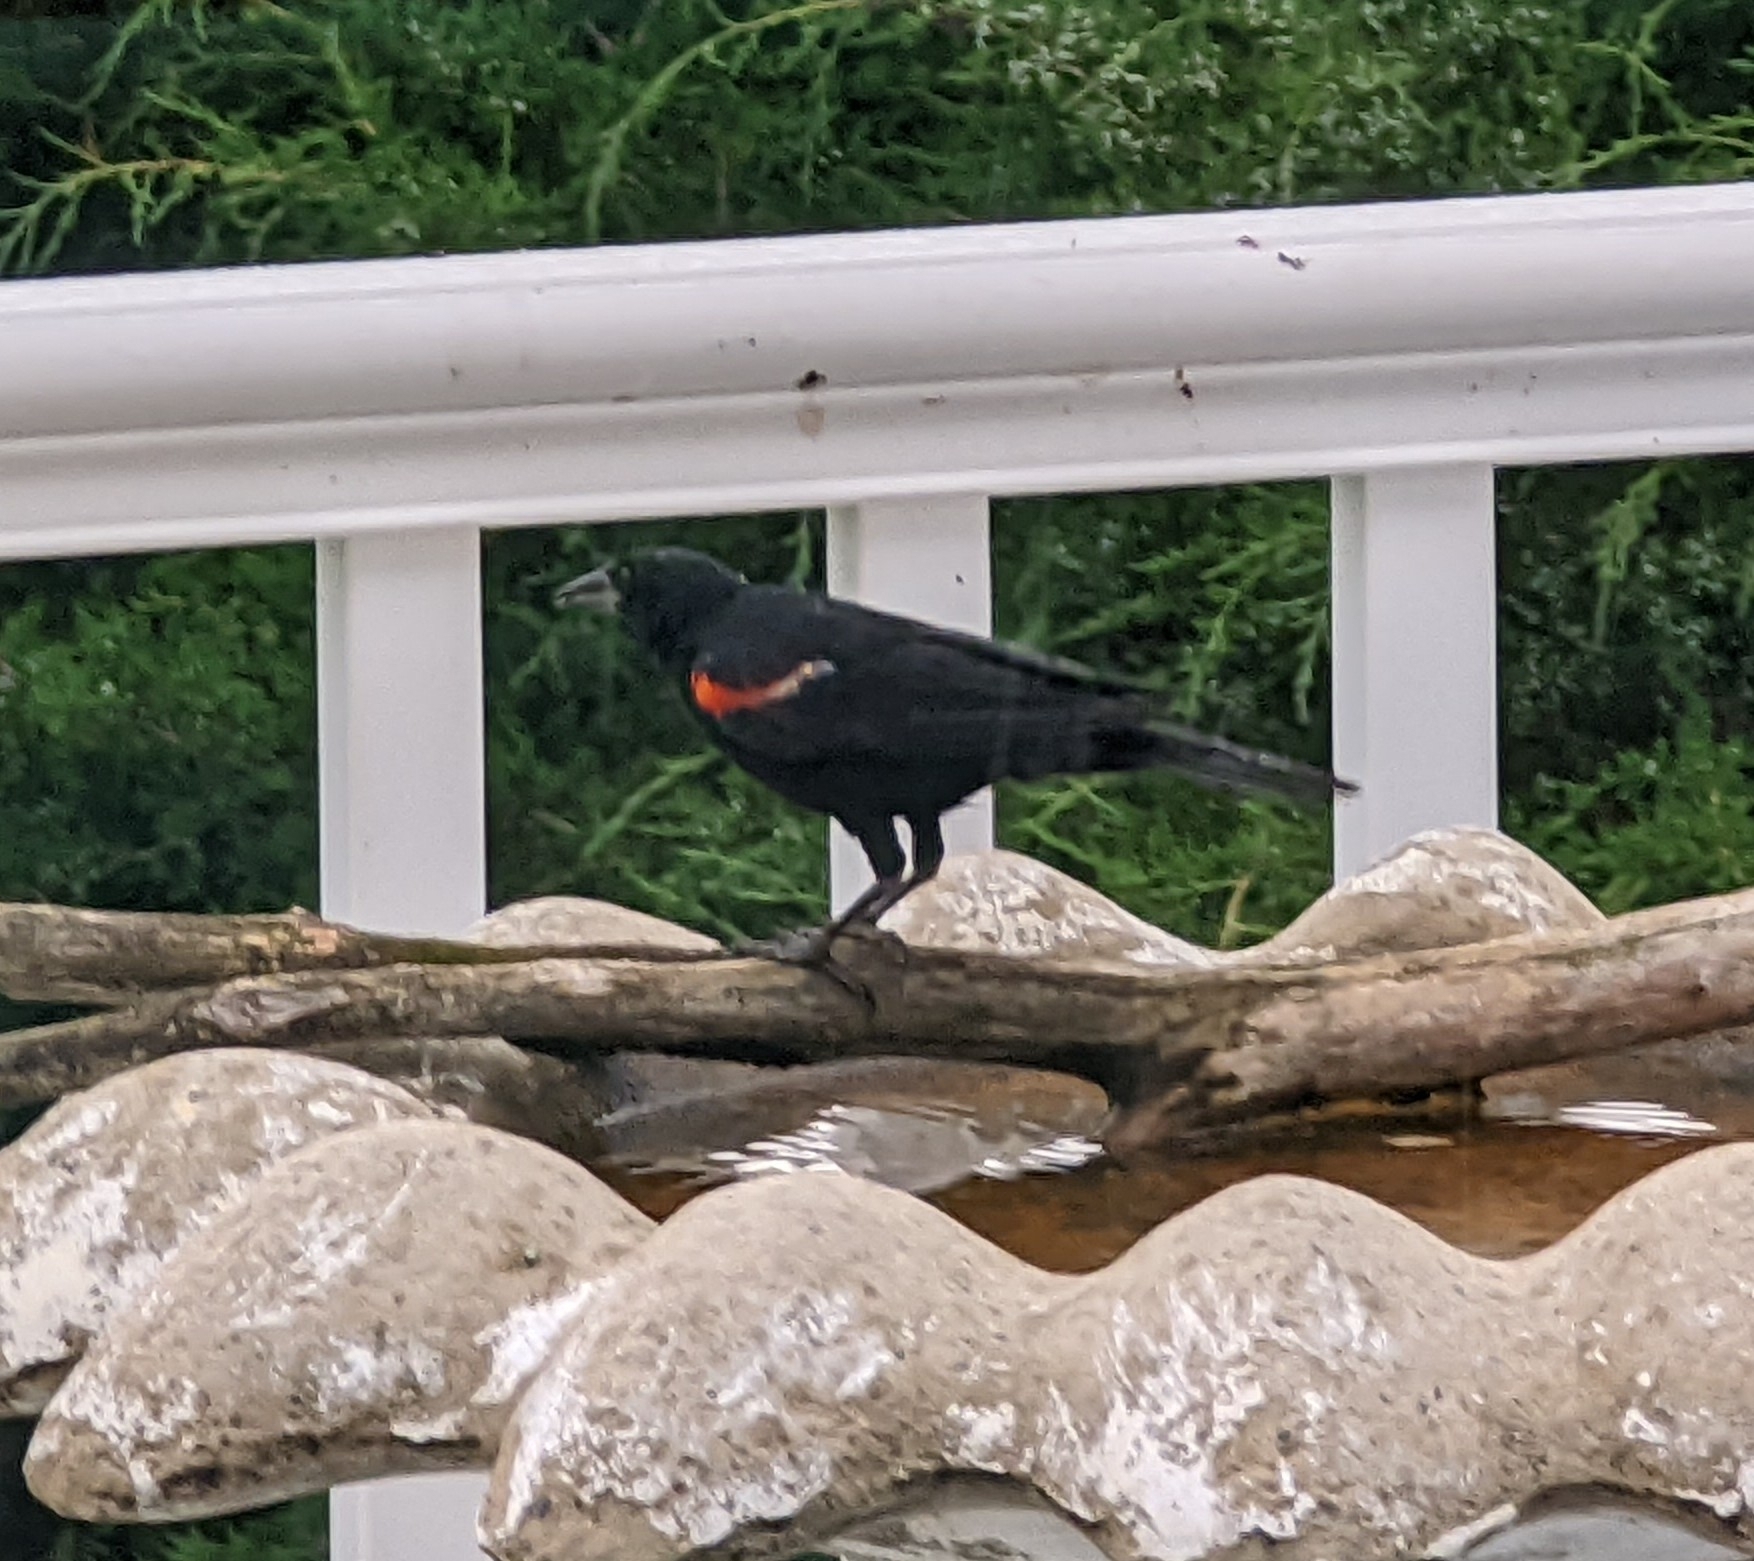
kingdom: Animalia
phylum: Chordata
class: Aves
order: Passeriformes
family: Icteridae
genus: Agelaius
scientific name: Agelaius phoeniceus
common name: Red-winged blackbird
